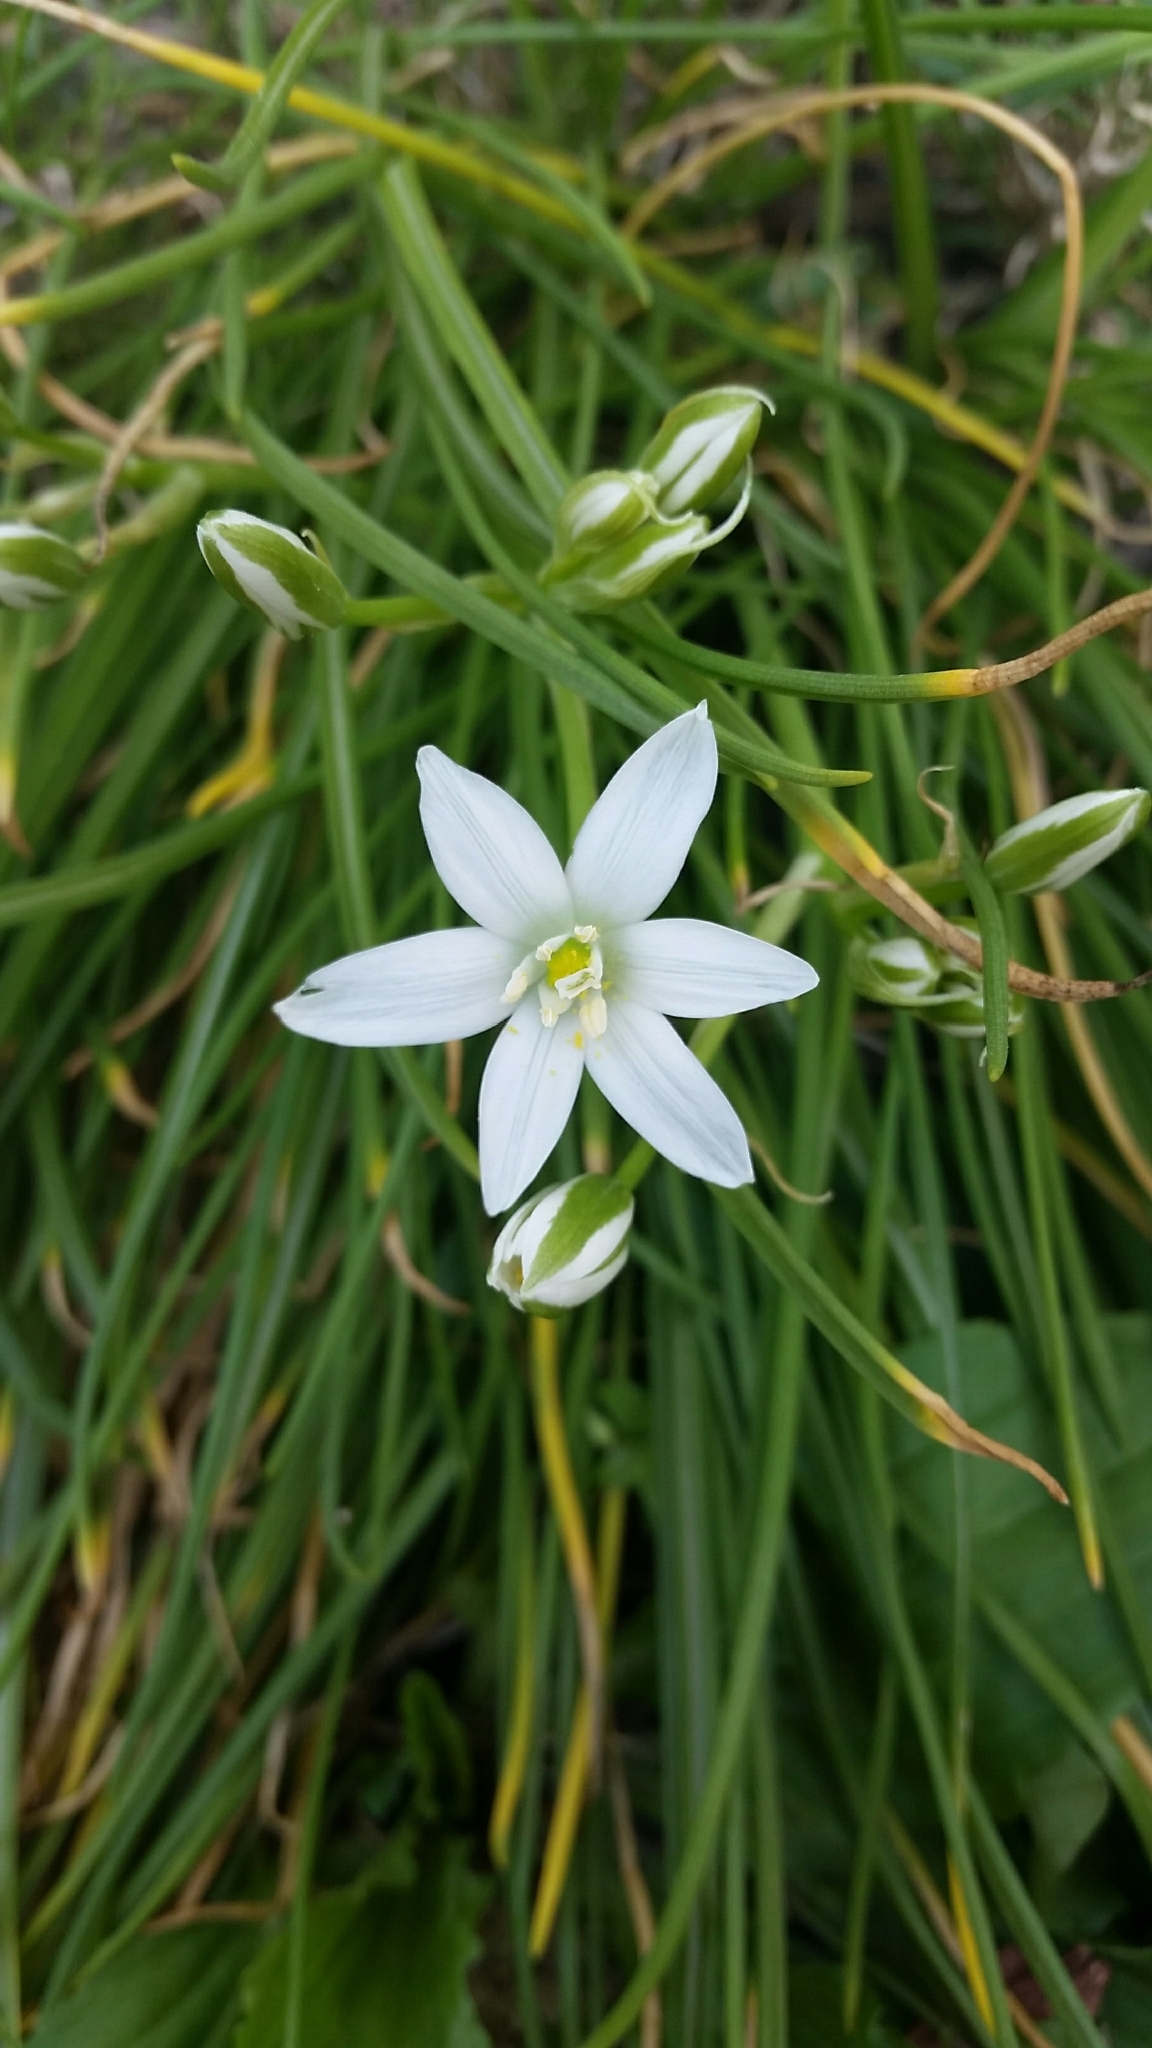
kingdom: Plantae
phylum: Tracheophyta
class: Liliopsida
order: Asparagales
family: Asparagaceae
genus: Ornithogalum
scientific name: Ornithogalum umbellatum
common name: Garden star-of-bethlehem
